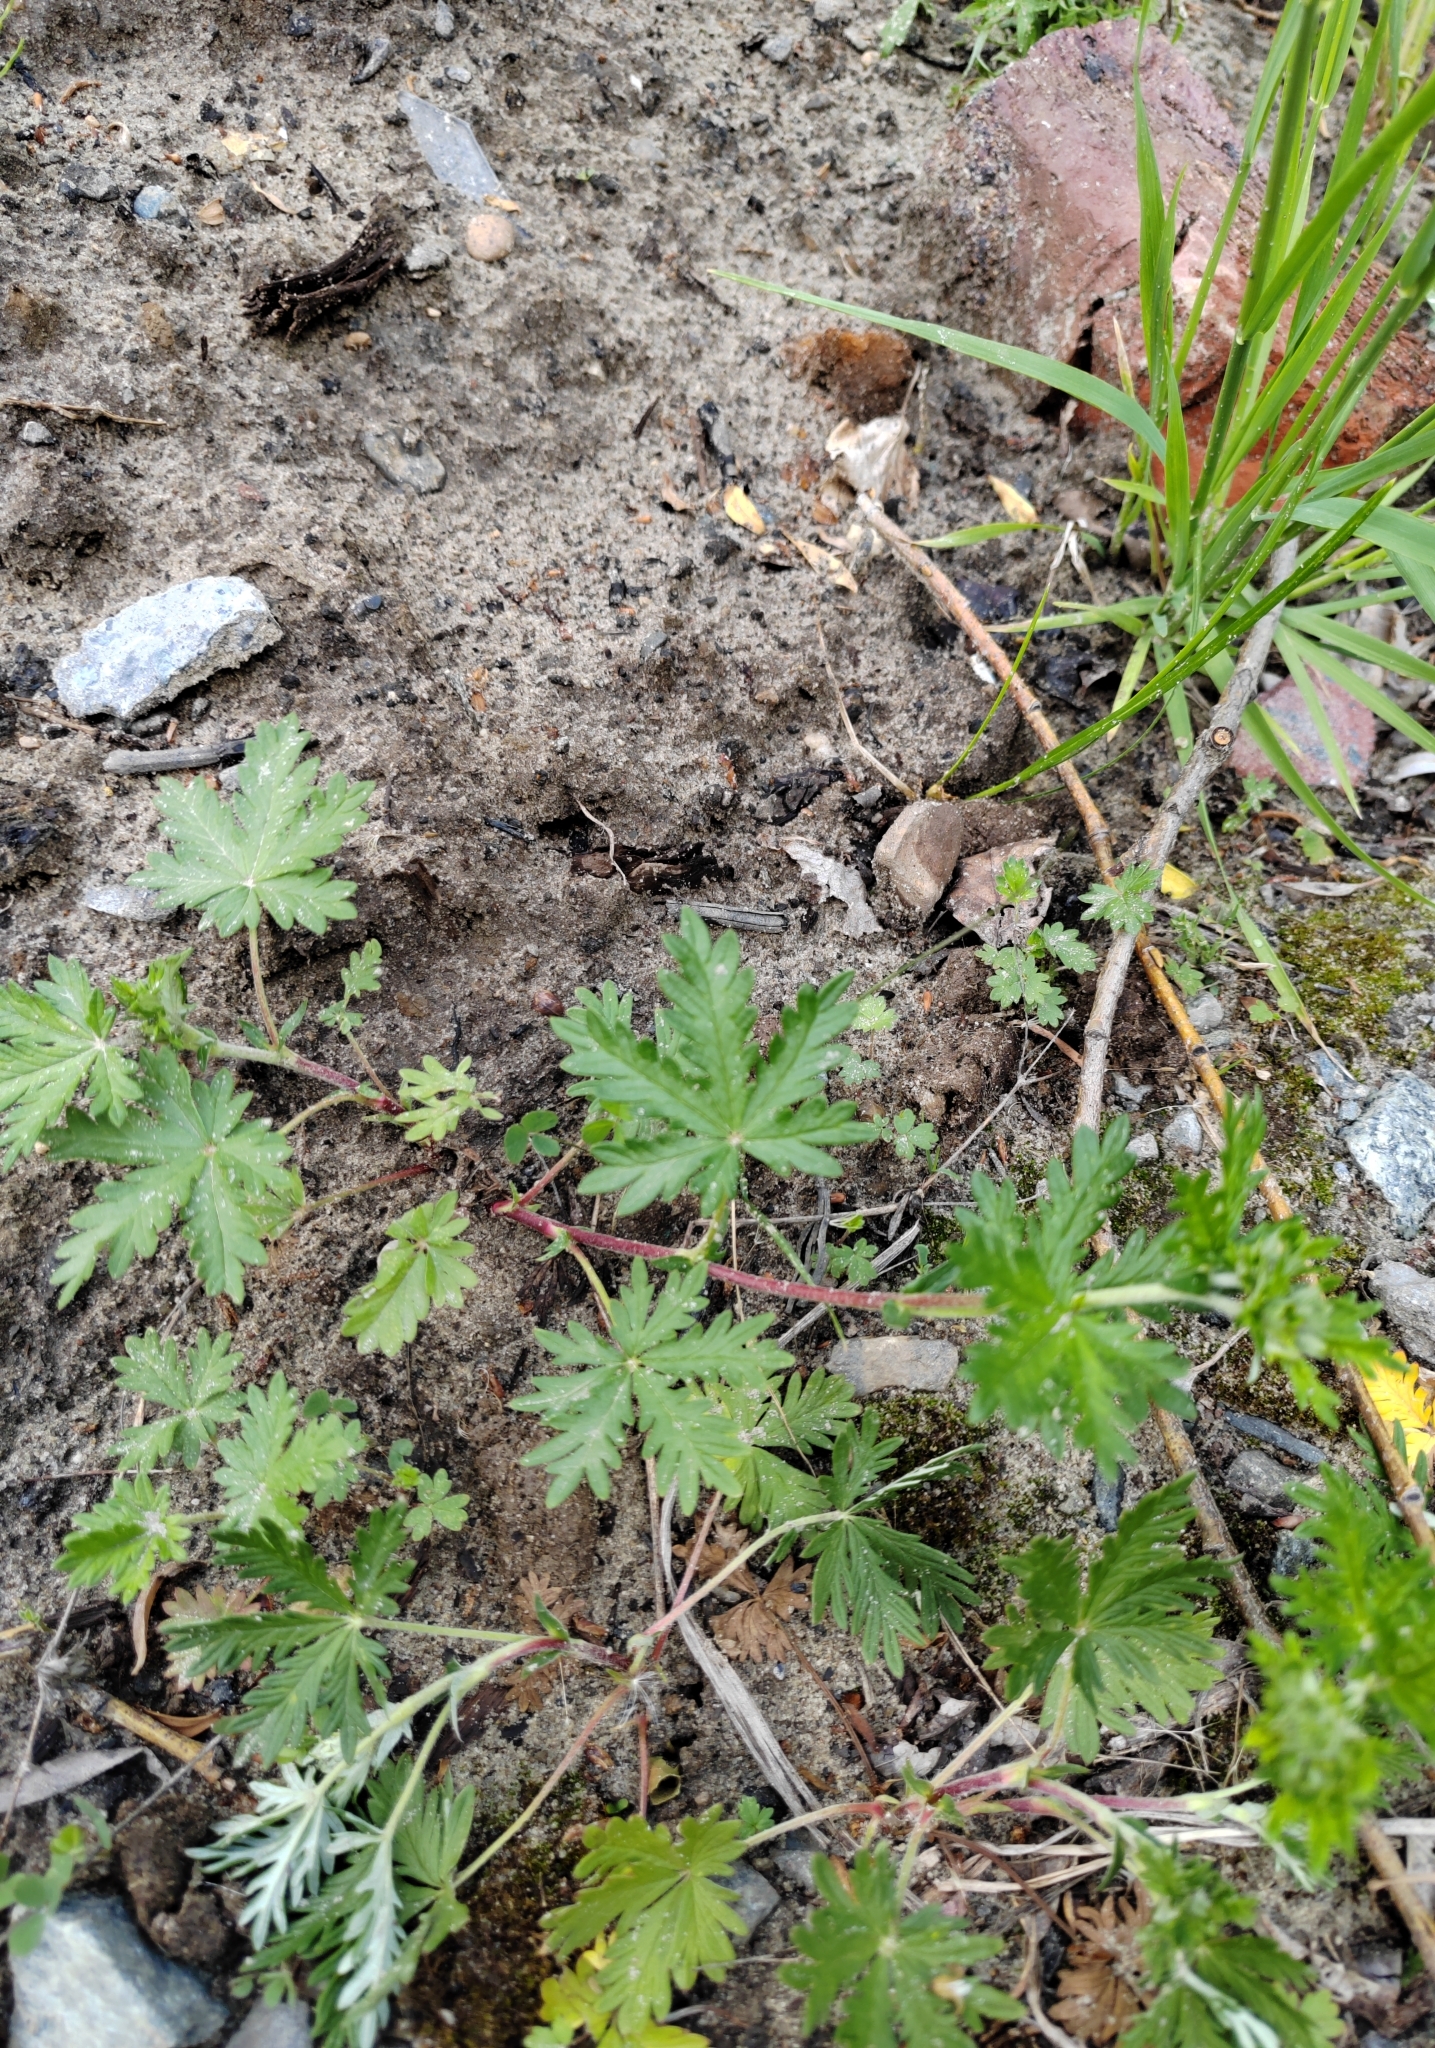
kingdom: Plantae
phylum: Tracheophyta
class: Magnoliopsida
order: Rosales
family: Rosaceae
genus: Potentilla
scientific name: Potentilla argentea
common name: Hoary cinquefoil
